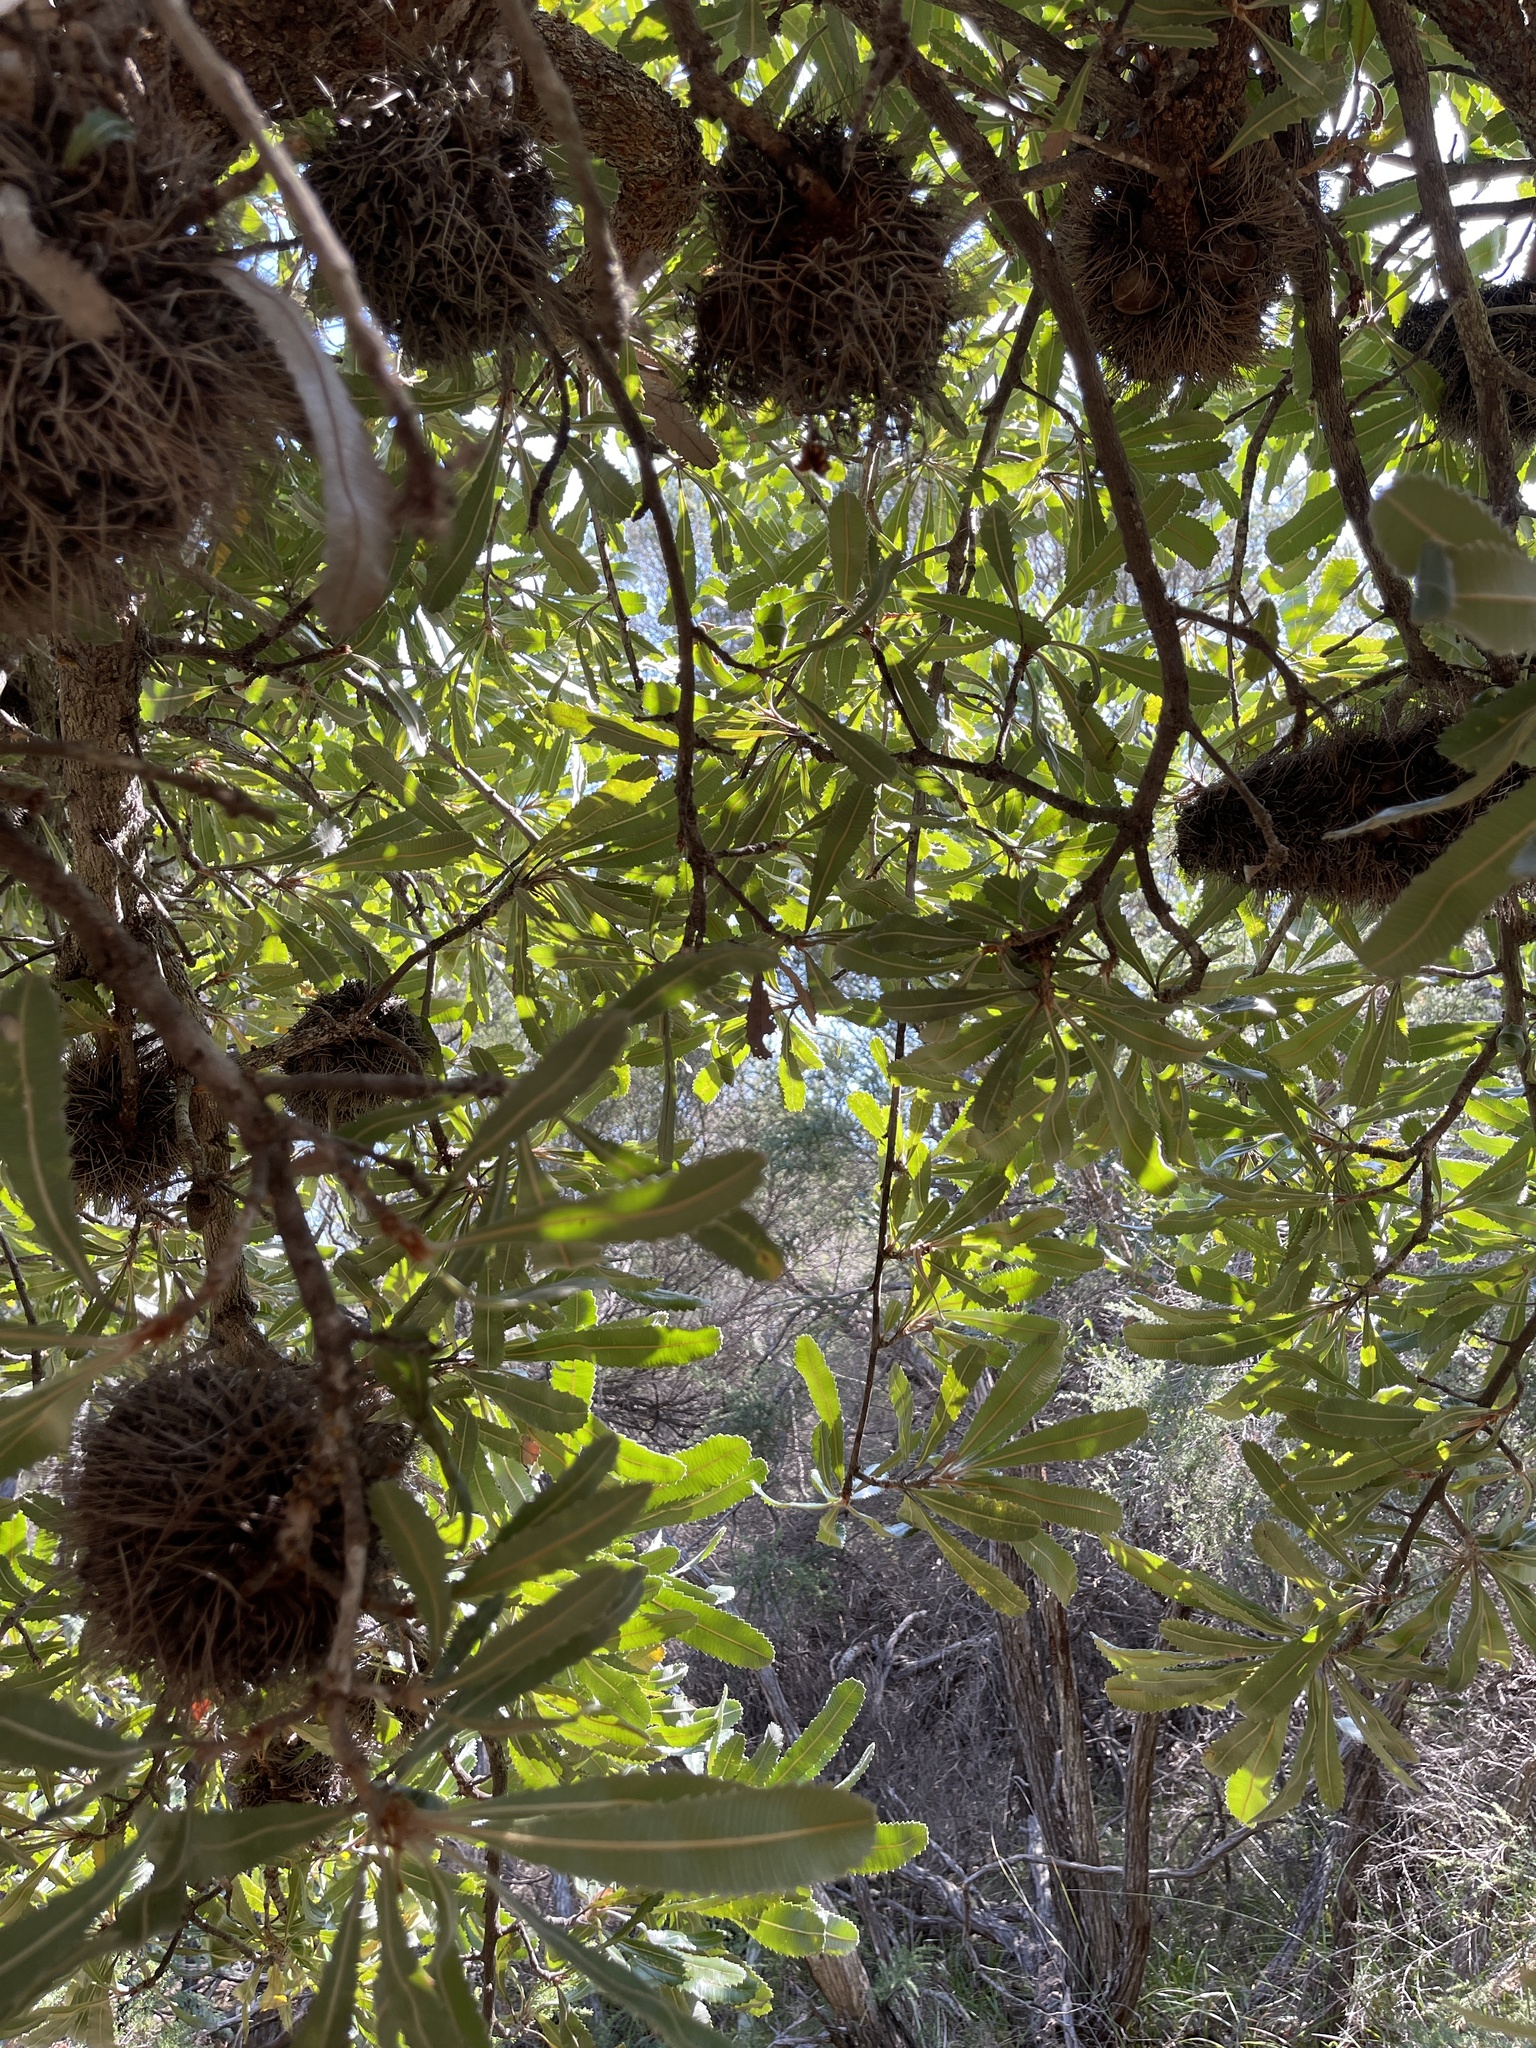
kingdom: Plantae
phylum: Tracheophyta
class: Magnoliopsida
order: Proteales
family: Proteaceae
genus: Banksia
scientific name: Banksia serrata
